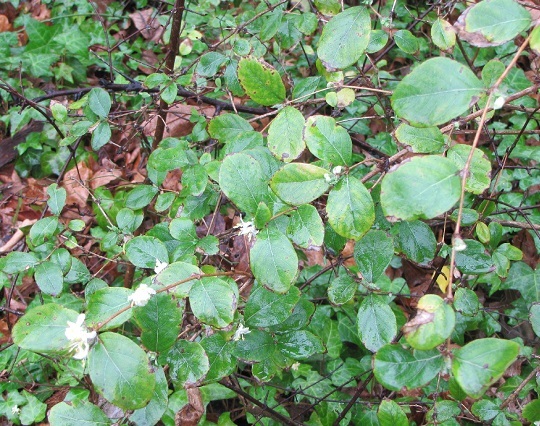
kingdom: Plantae
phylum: Tracheophyta
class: Magnoliopsida
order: Dipsacales
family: Caprifoliaceae
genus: Lonicera
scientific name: Lonicera fragrantissima
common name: Fragrant honeysuckle
